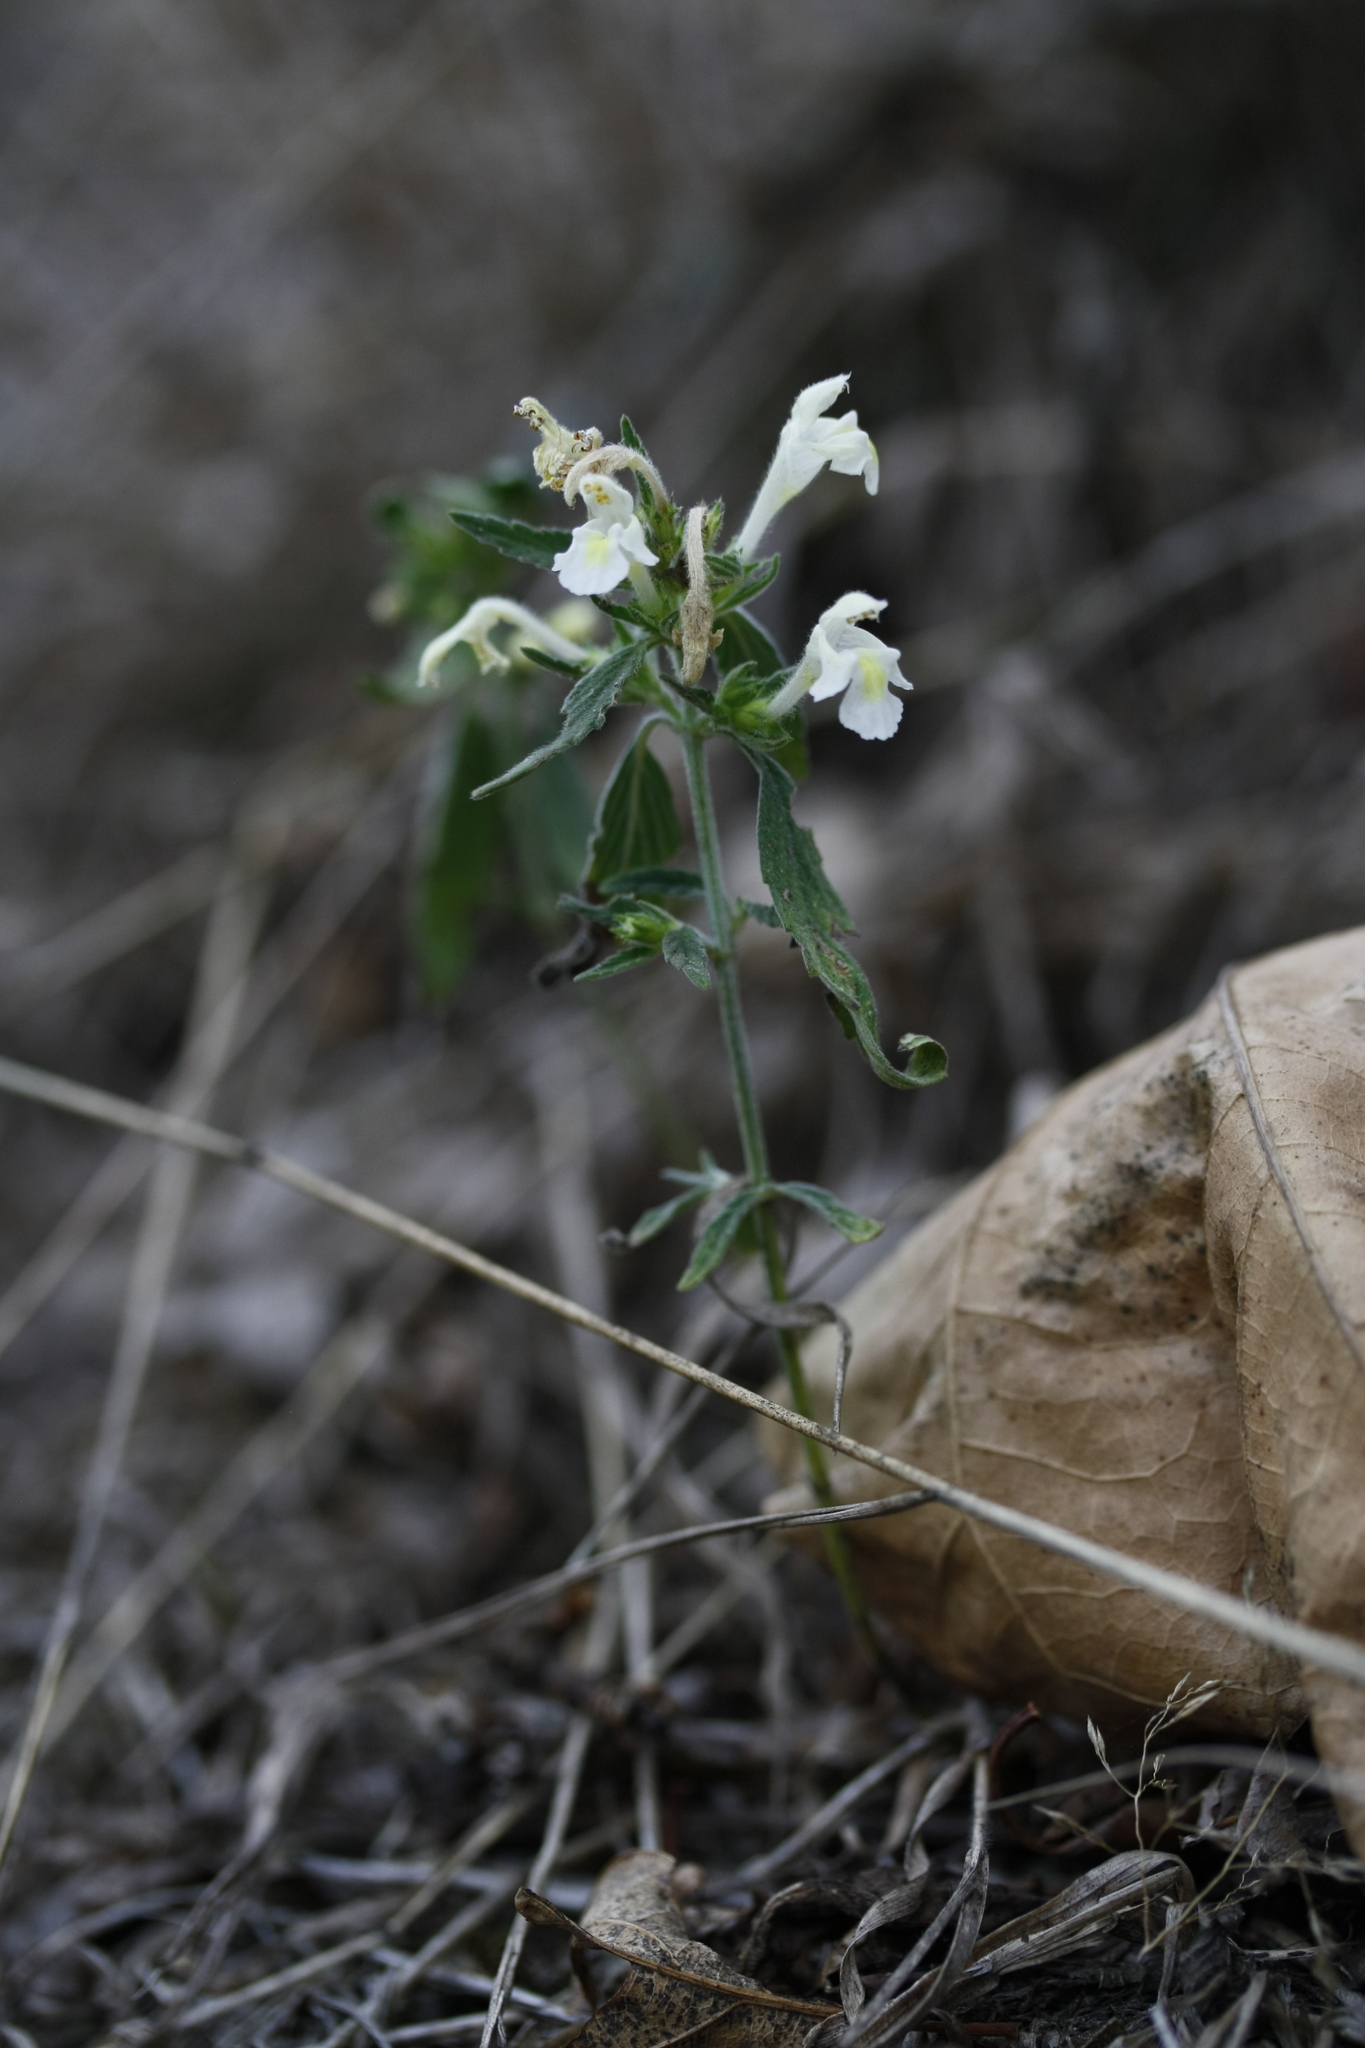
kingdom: Plantae
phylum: Tracheophyta
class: Magnoliopsida
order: Lamiales
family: Lamiaceae
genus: Galeopsis
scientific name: Galeopsis segetum
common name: Downy hemp-nettle
